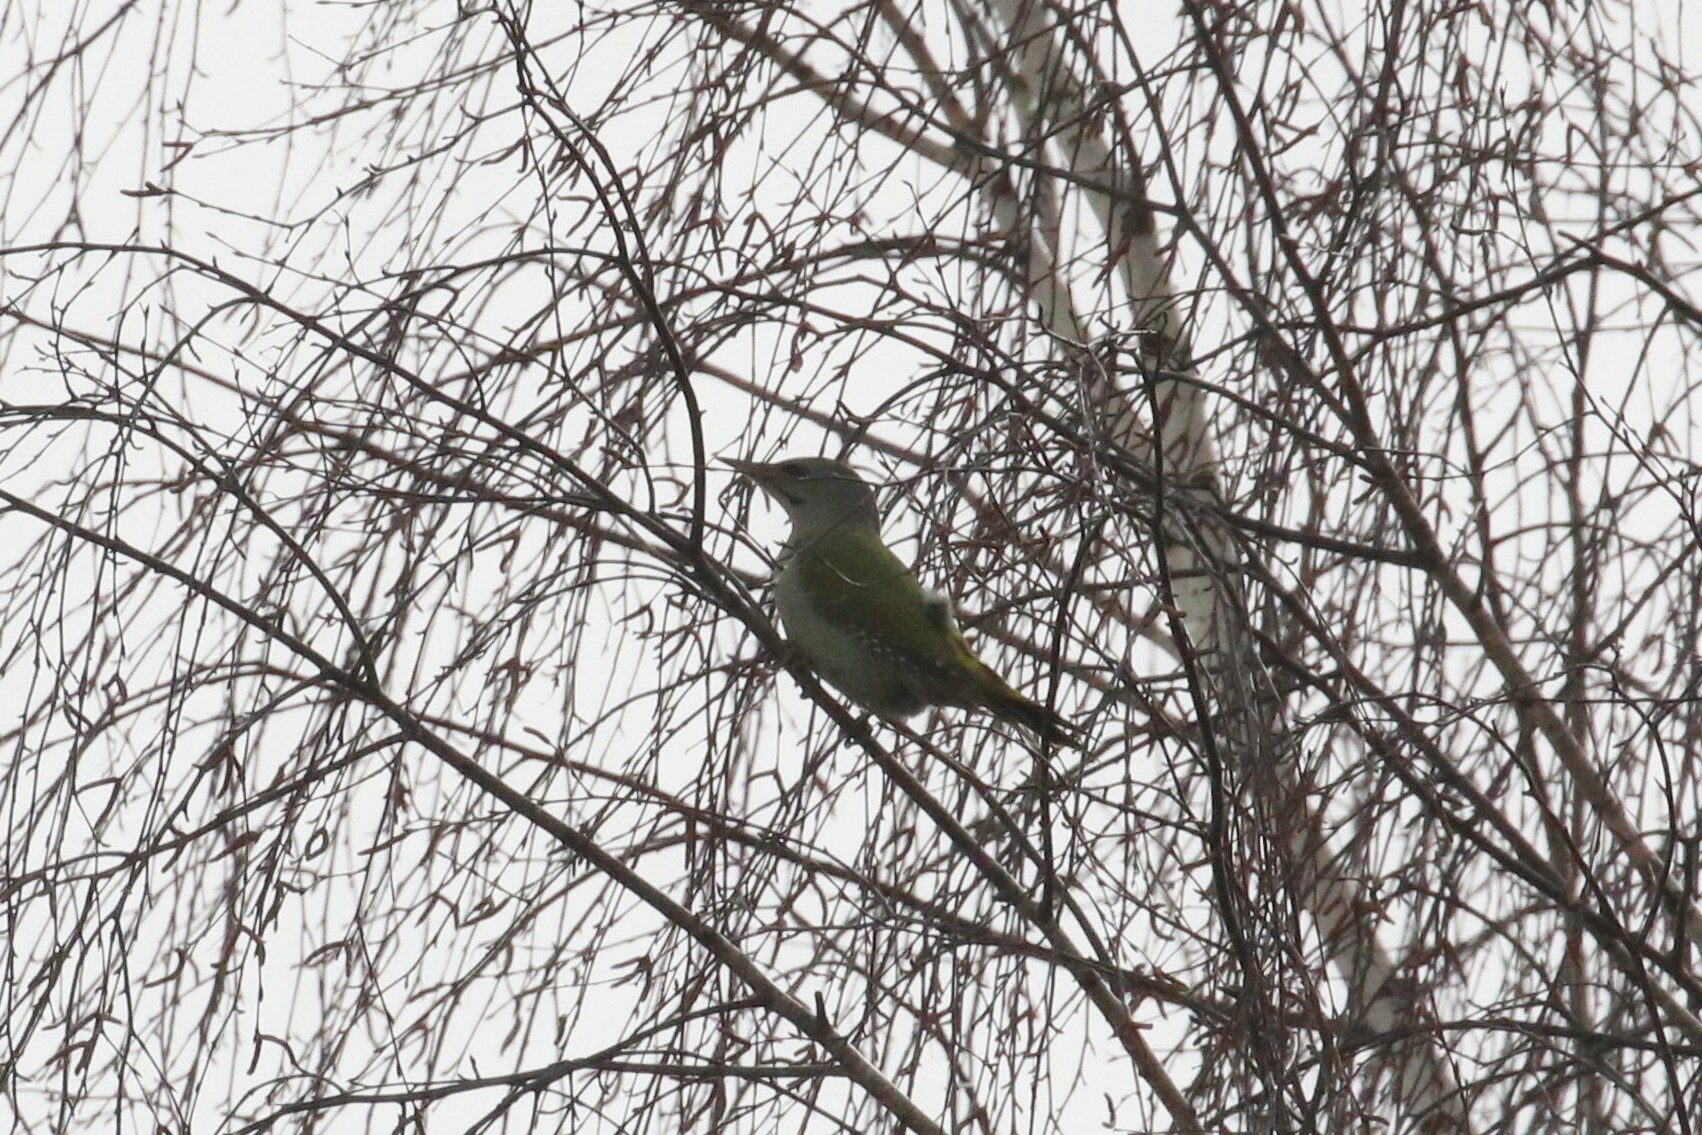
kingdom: Animalia
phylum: Chordata
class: Aves
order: Piciformes
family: Picidae
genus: Picus
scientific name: Picus canus
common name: Grey-headed woodpecker
